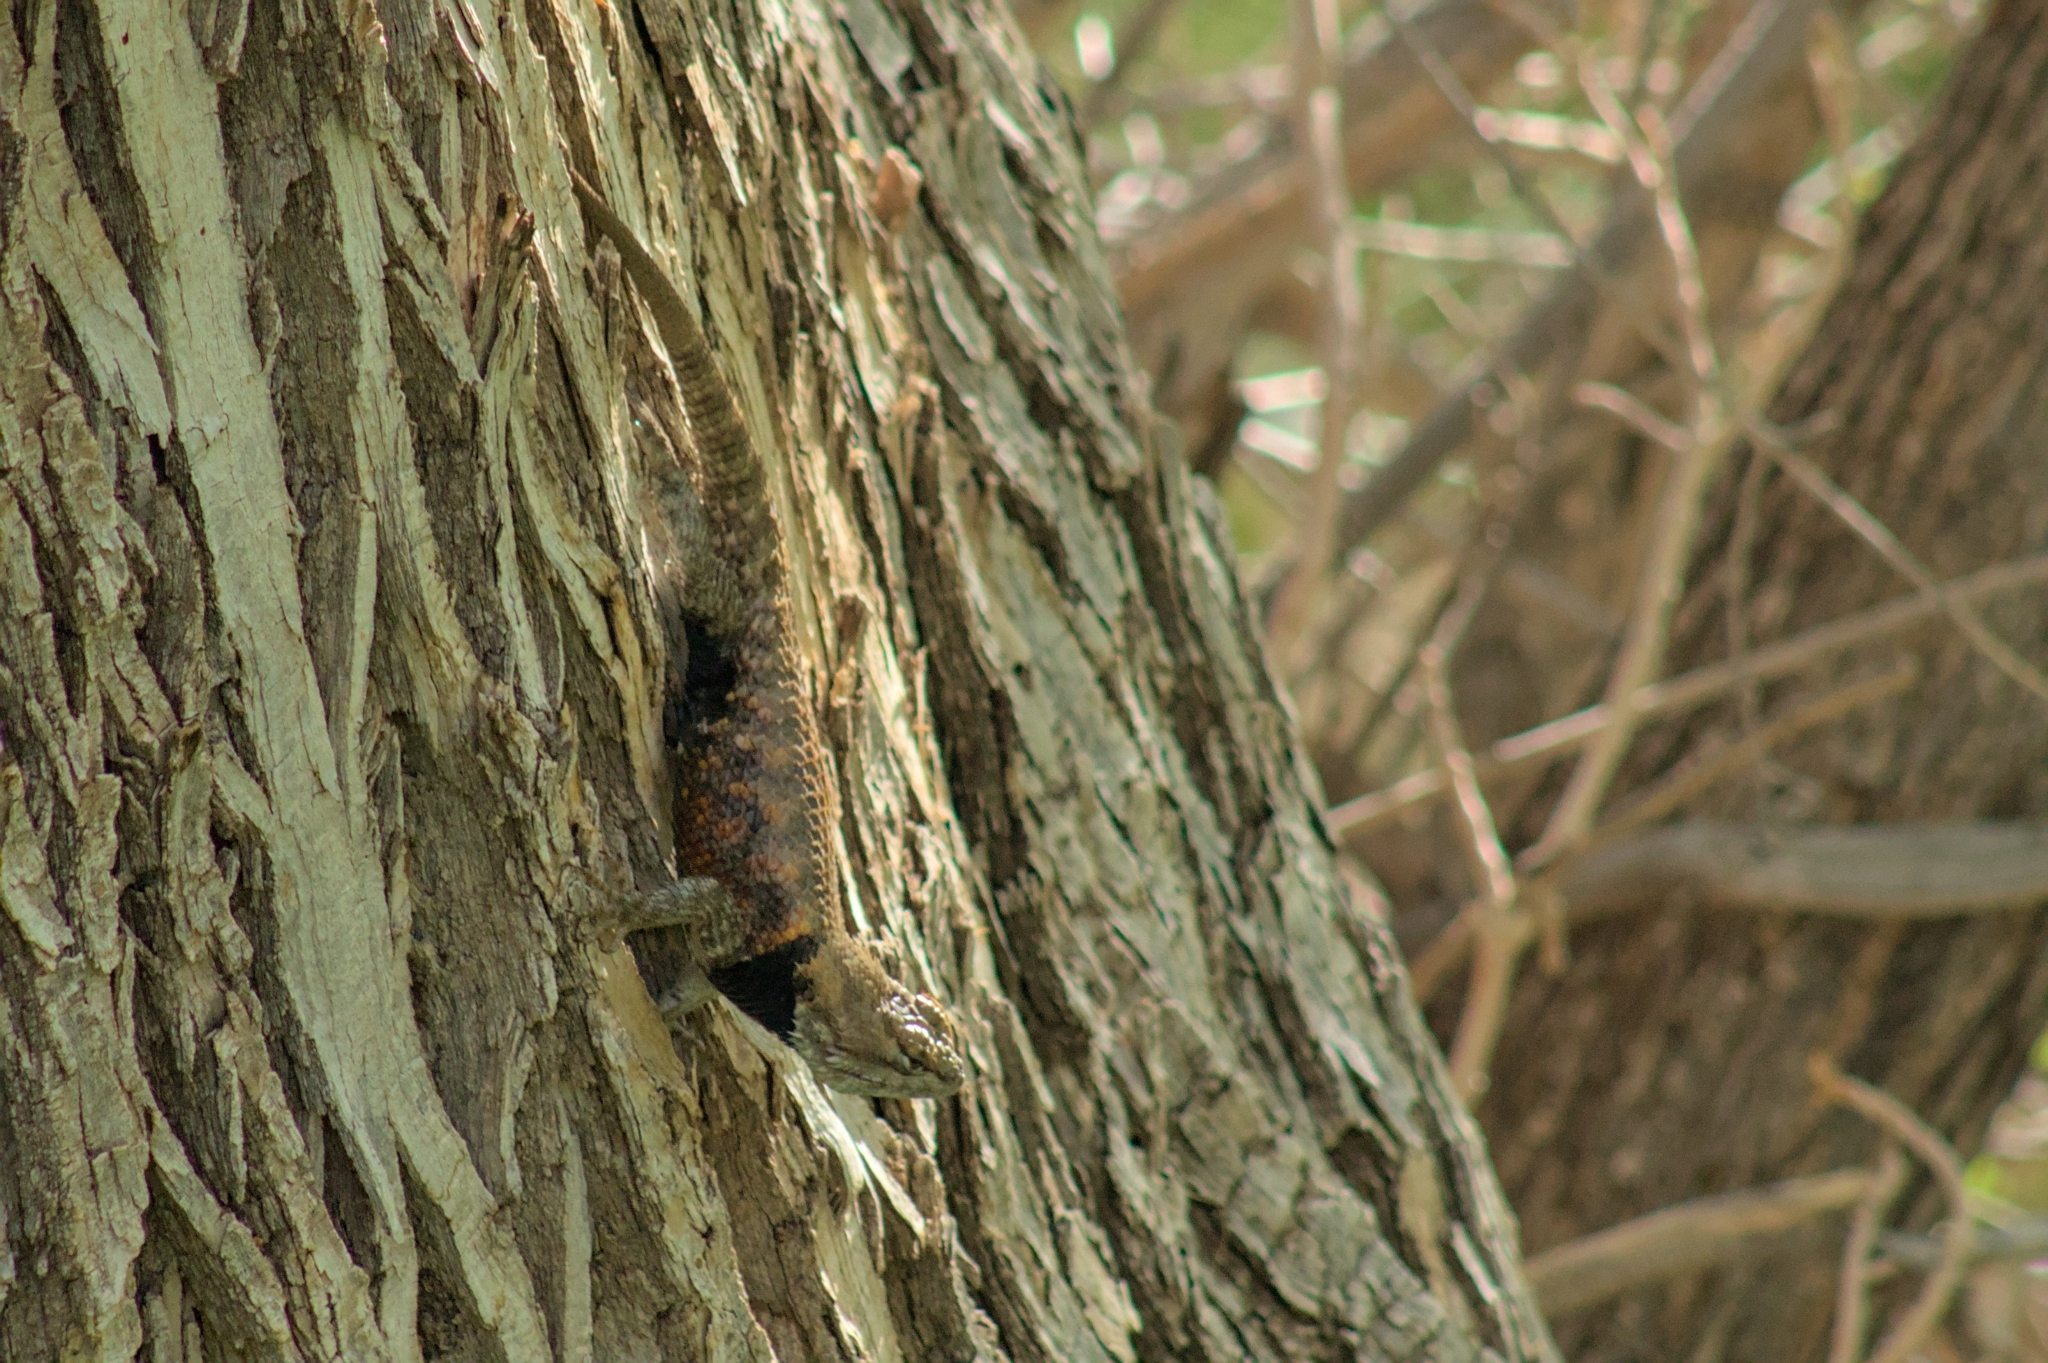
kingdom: Animalia
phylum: Chordata
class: Squamata
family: Phrynosomatidae
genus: Sceloporus
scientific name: Sceloporus magister
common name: Desert spiny lizard
